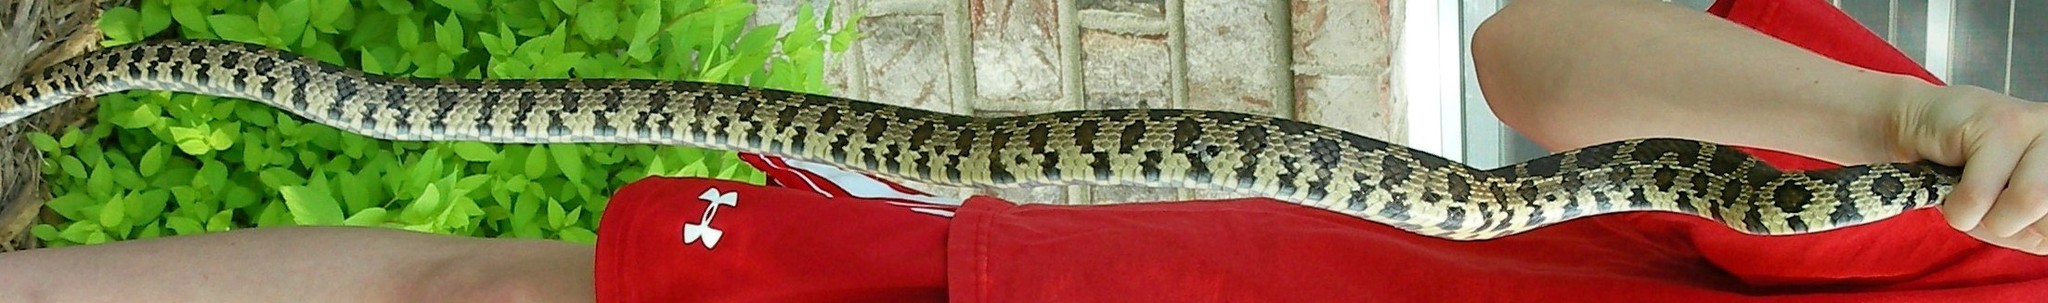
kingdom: Animalia
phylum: Chordata
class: Squamata
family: Colubridae
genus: Pantherophis
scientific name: Pantherophis vulpinus
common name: Eastern fox snake
